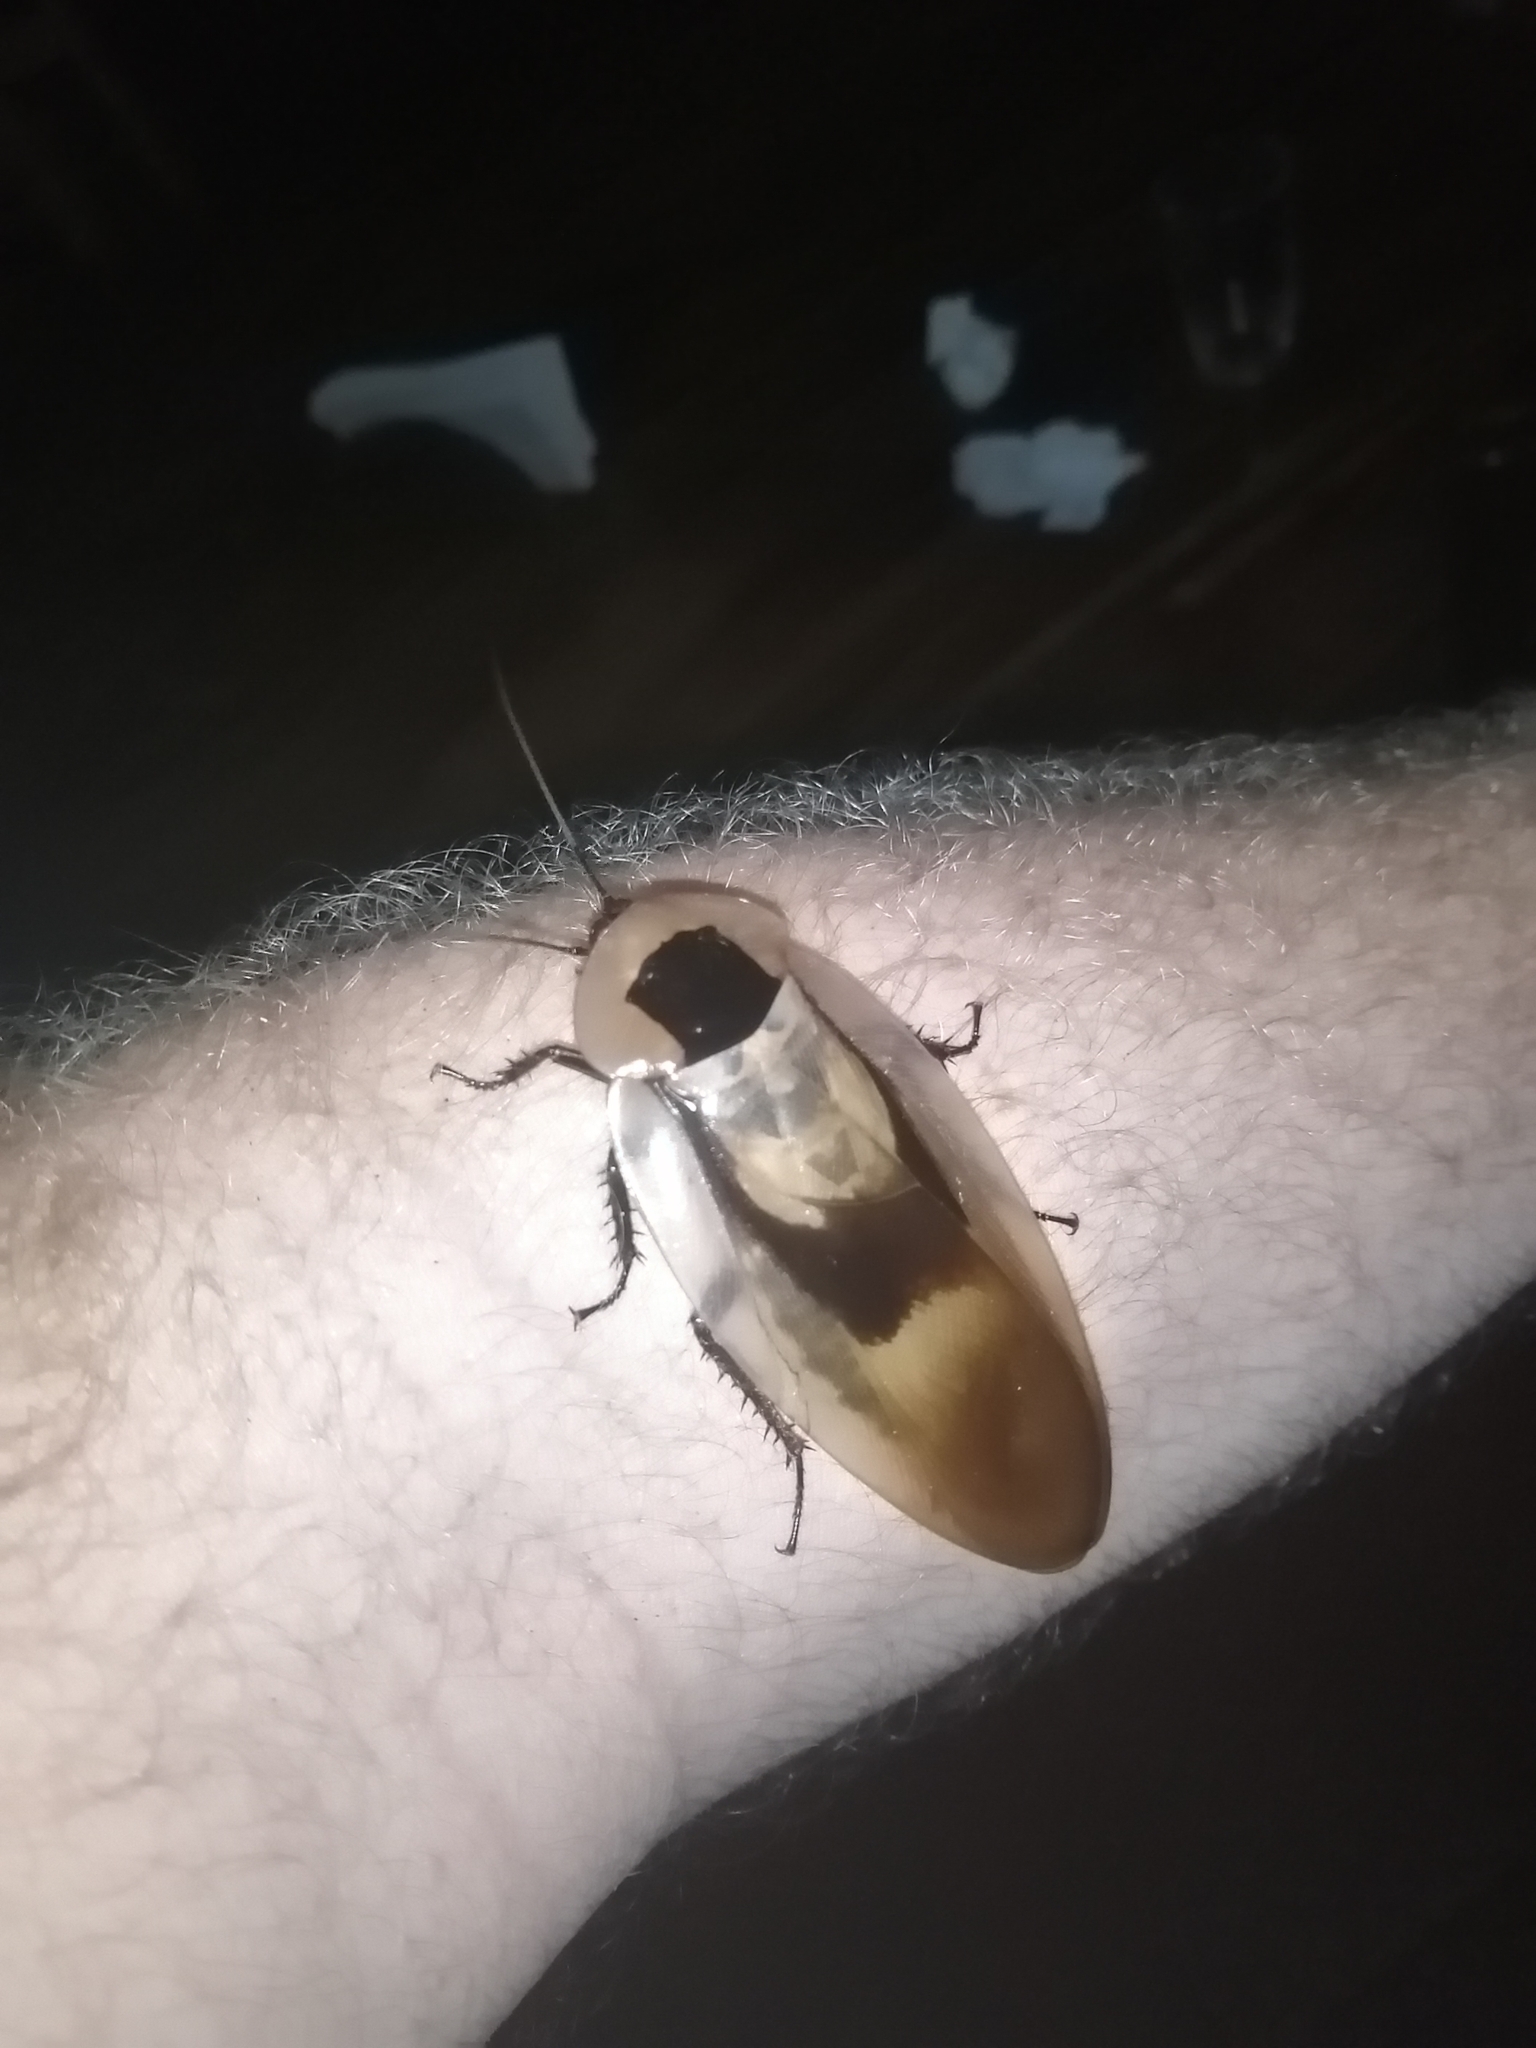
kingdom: Animalia
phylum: Arthropoda
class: Insecta
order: Blattodea
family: Blaberidae
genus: Blaberus
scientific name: Blaberus giganteus
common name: Giant cave cockroach
